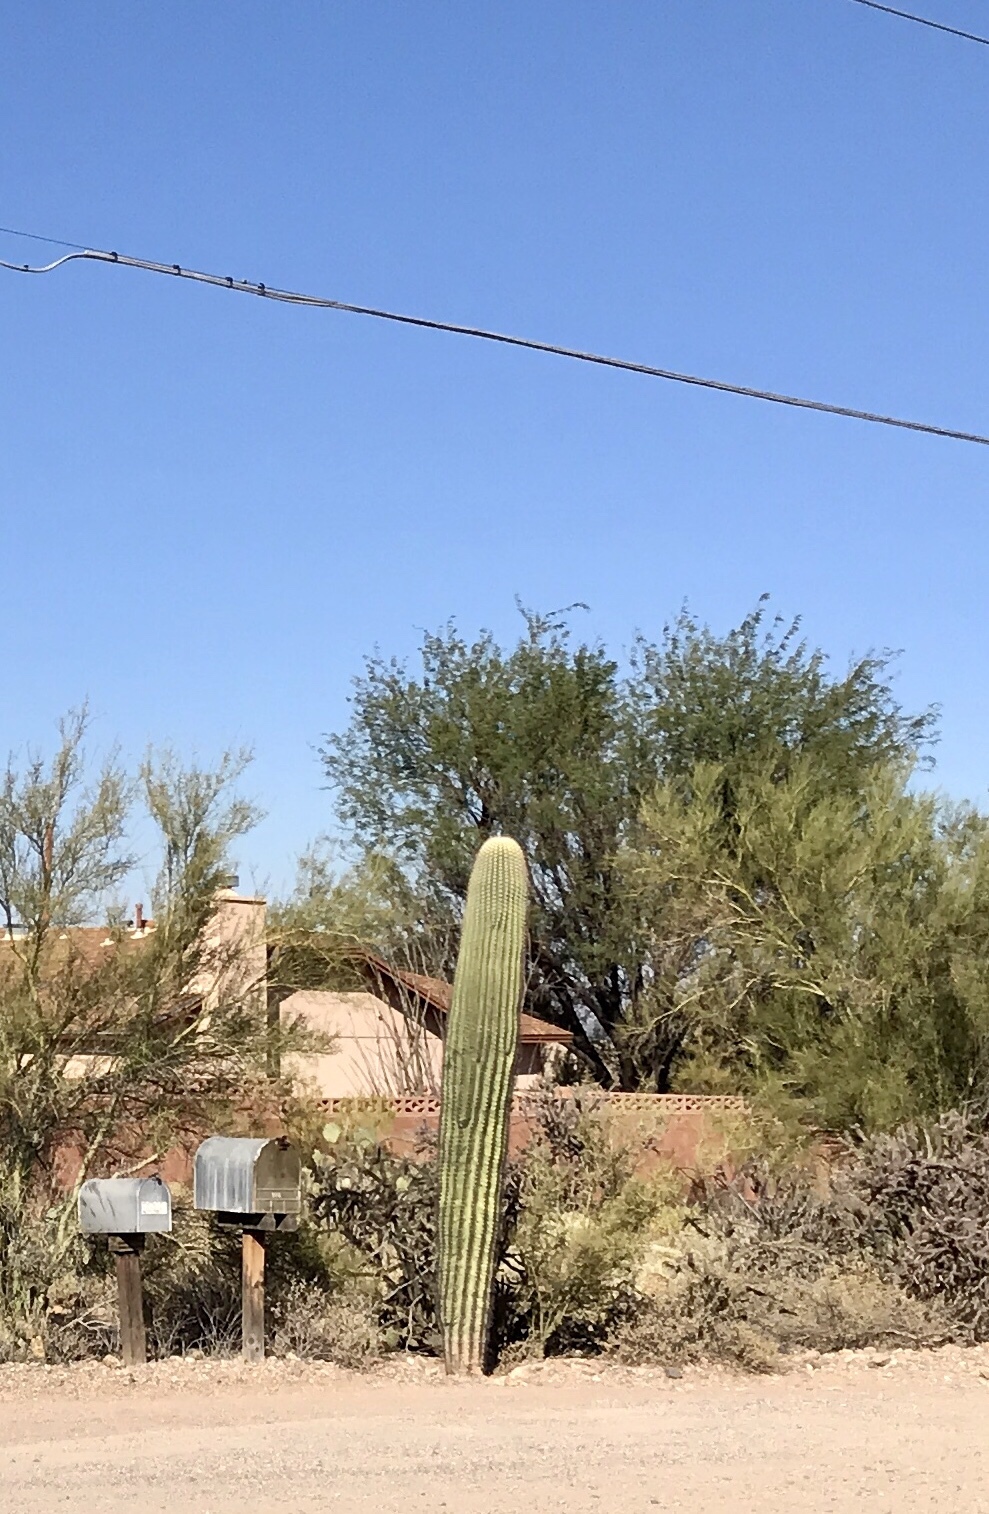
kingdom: Plantae
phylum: Tracheophyta
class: Magnoliopsida
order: Caryophyllales
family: Cactaceae
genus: Carnegiea
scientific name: Carnegiea gigantea
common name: Saguaro
